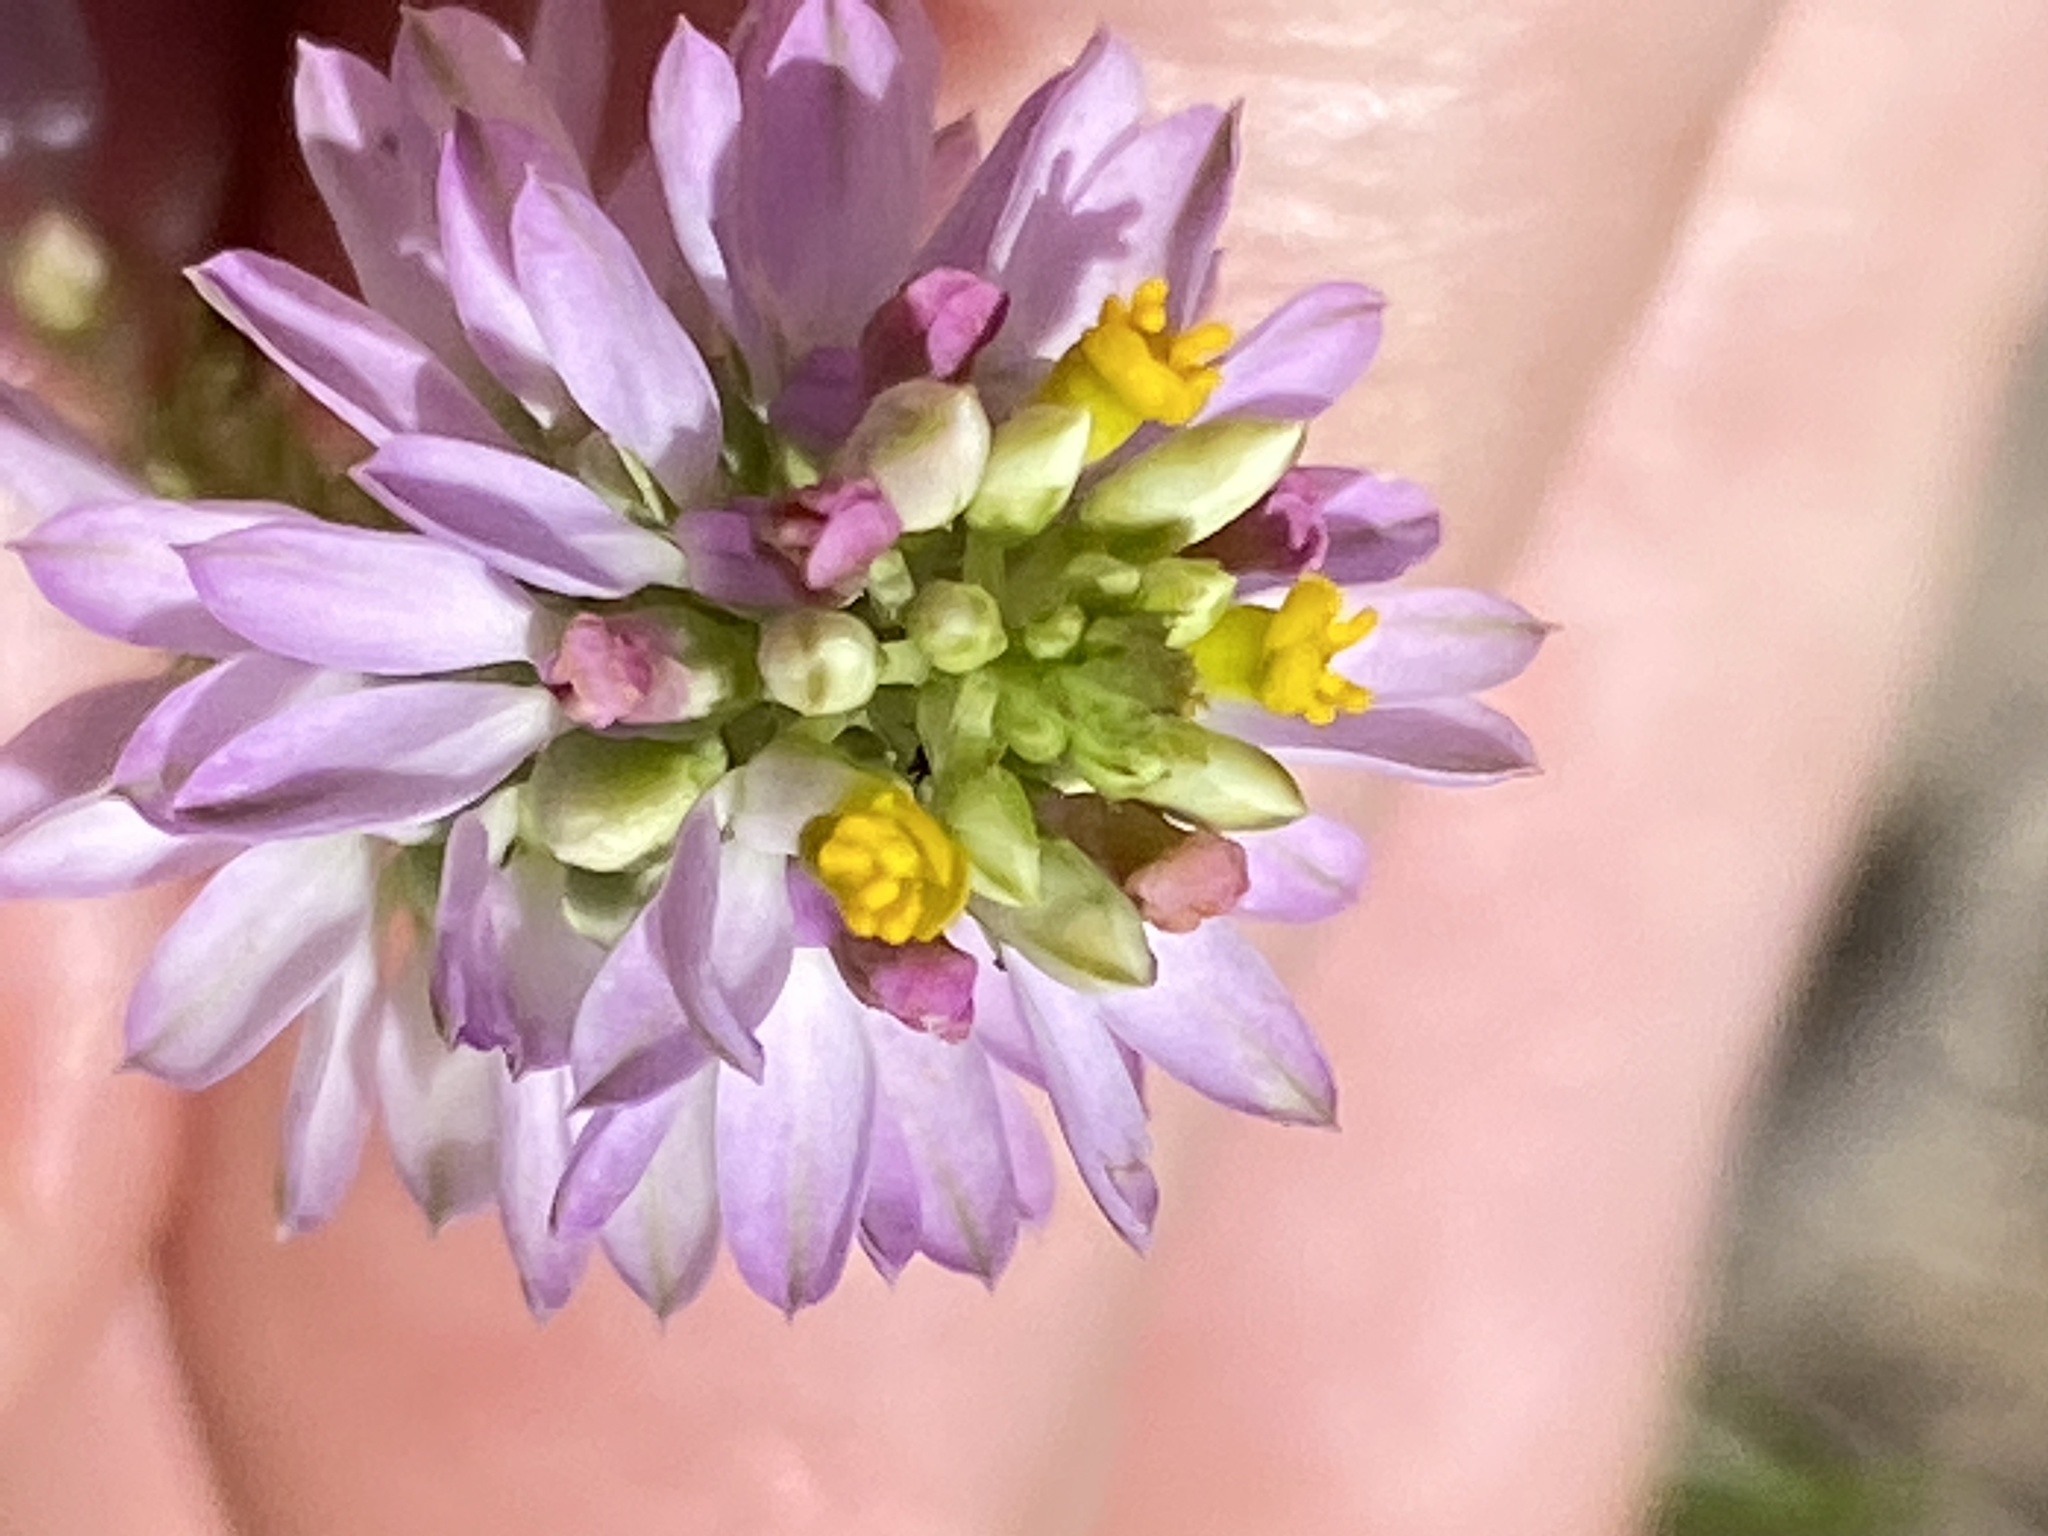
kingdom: Plantae
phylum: Tracheophyta
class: Magnoliopsida
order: Fabales
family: Polygalaceae
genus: Polygala
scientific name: Polygala curtissii
